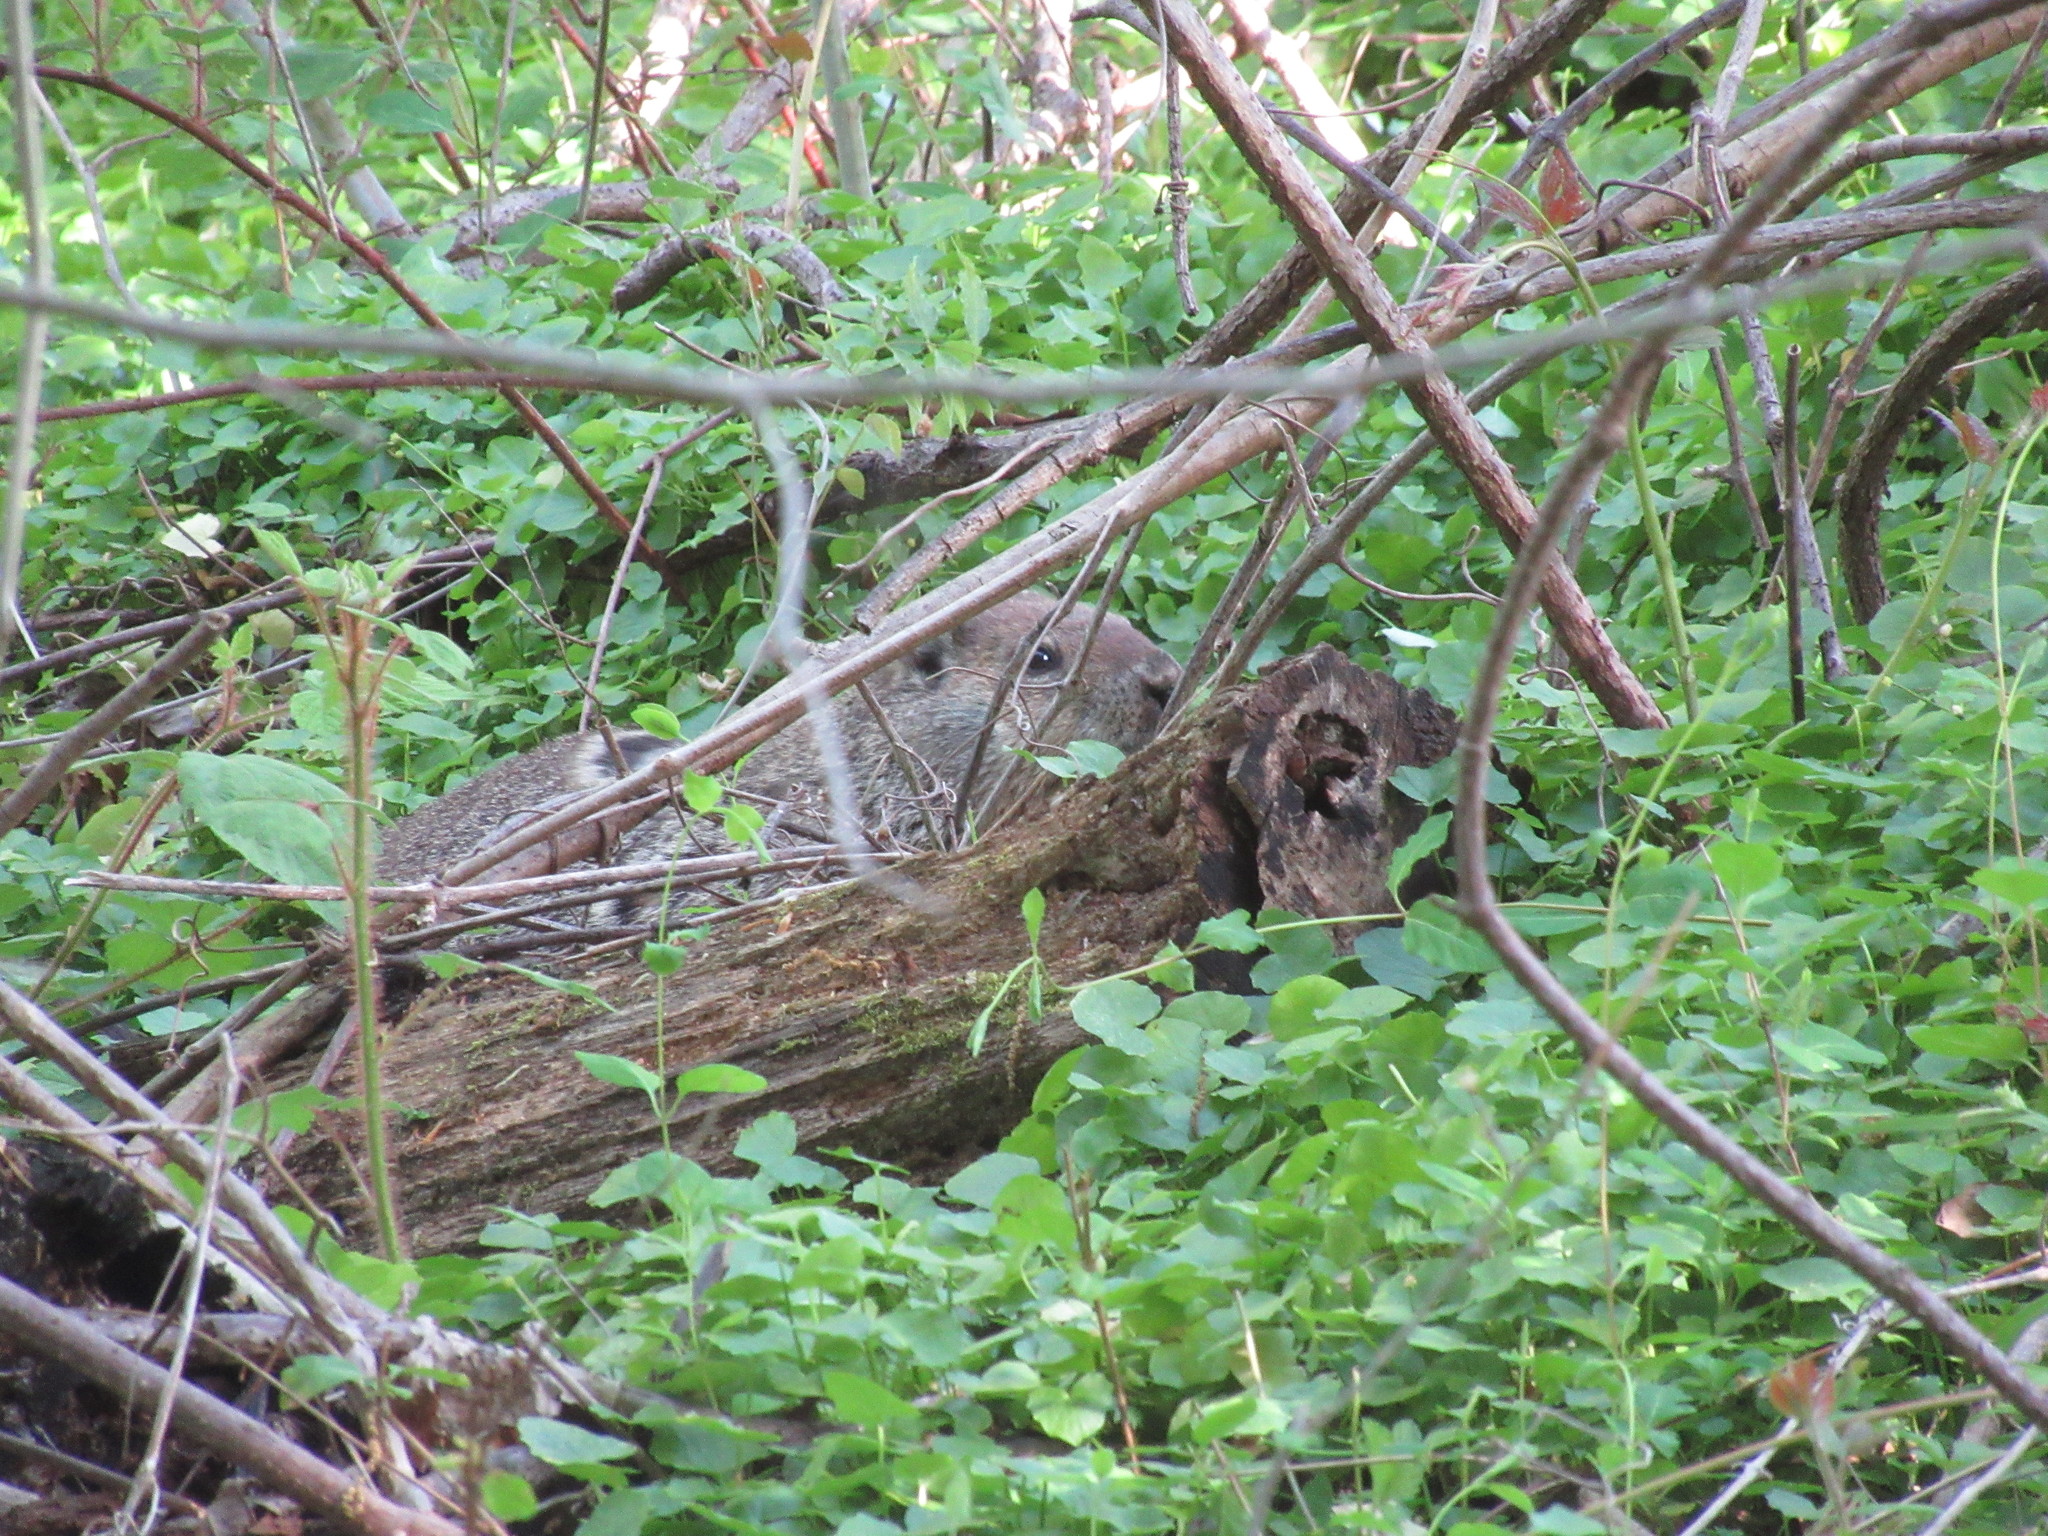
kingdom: Animalia
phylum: Chordata
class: Mammalia
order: Rodentia
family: Sciuridae
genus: Marmota
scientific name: Marmota monax
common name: Groundhog
